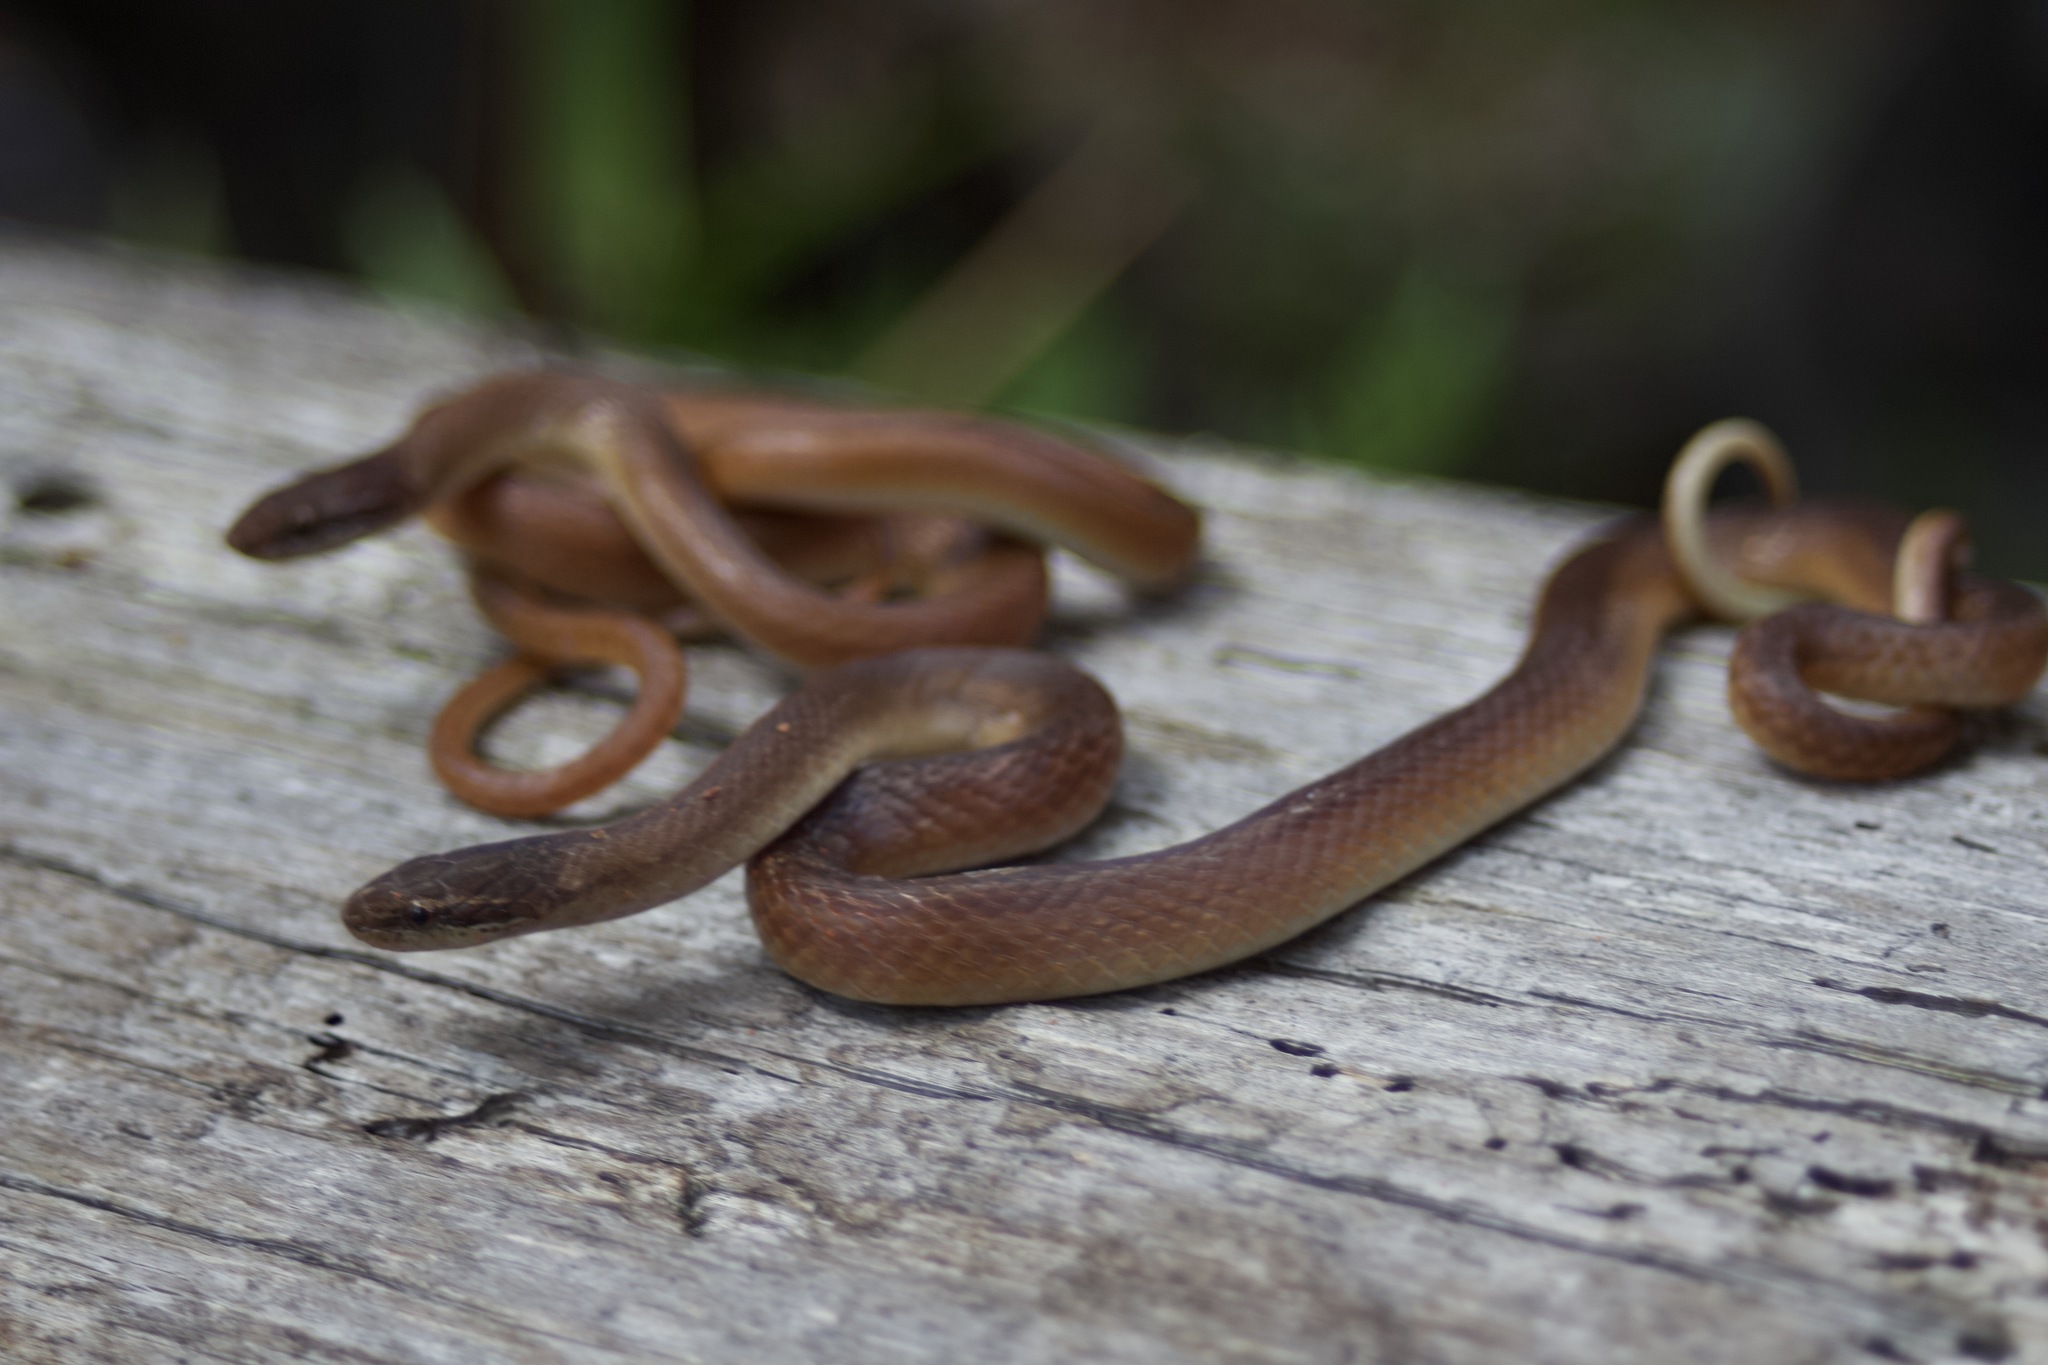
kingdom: Animalia
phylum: Chordata
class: Squamata
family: Colubridae
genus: Rhadinaea
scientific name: Rhadinaea flavilata
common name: Pine woods littersnake
